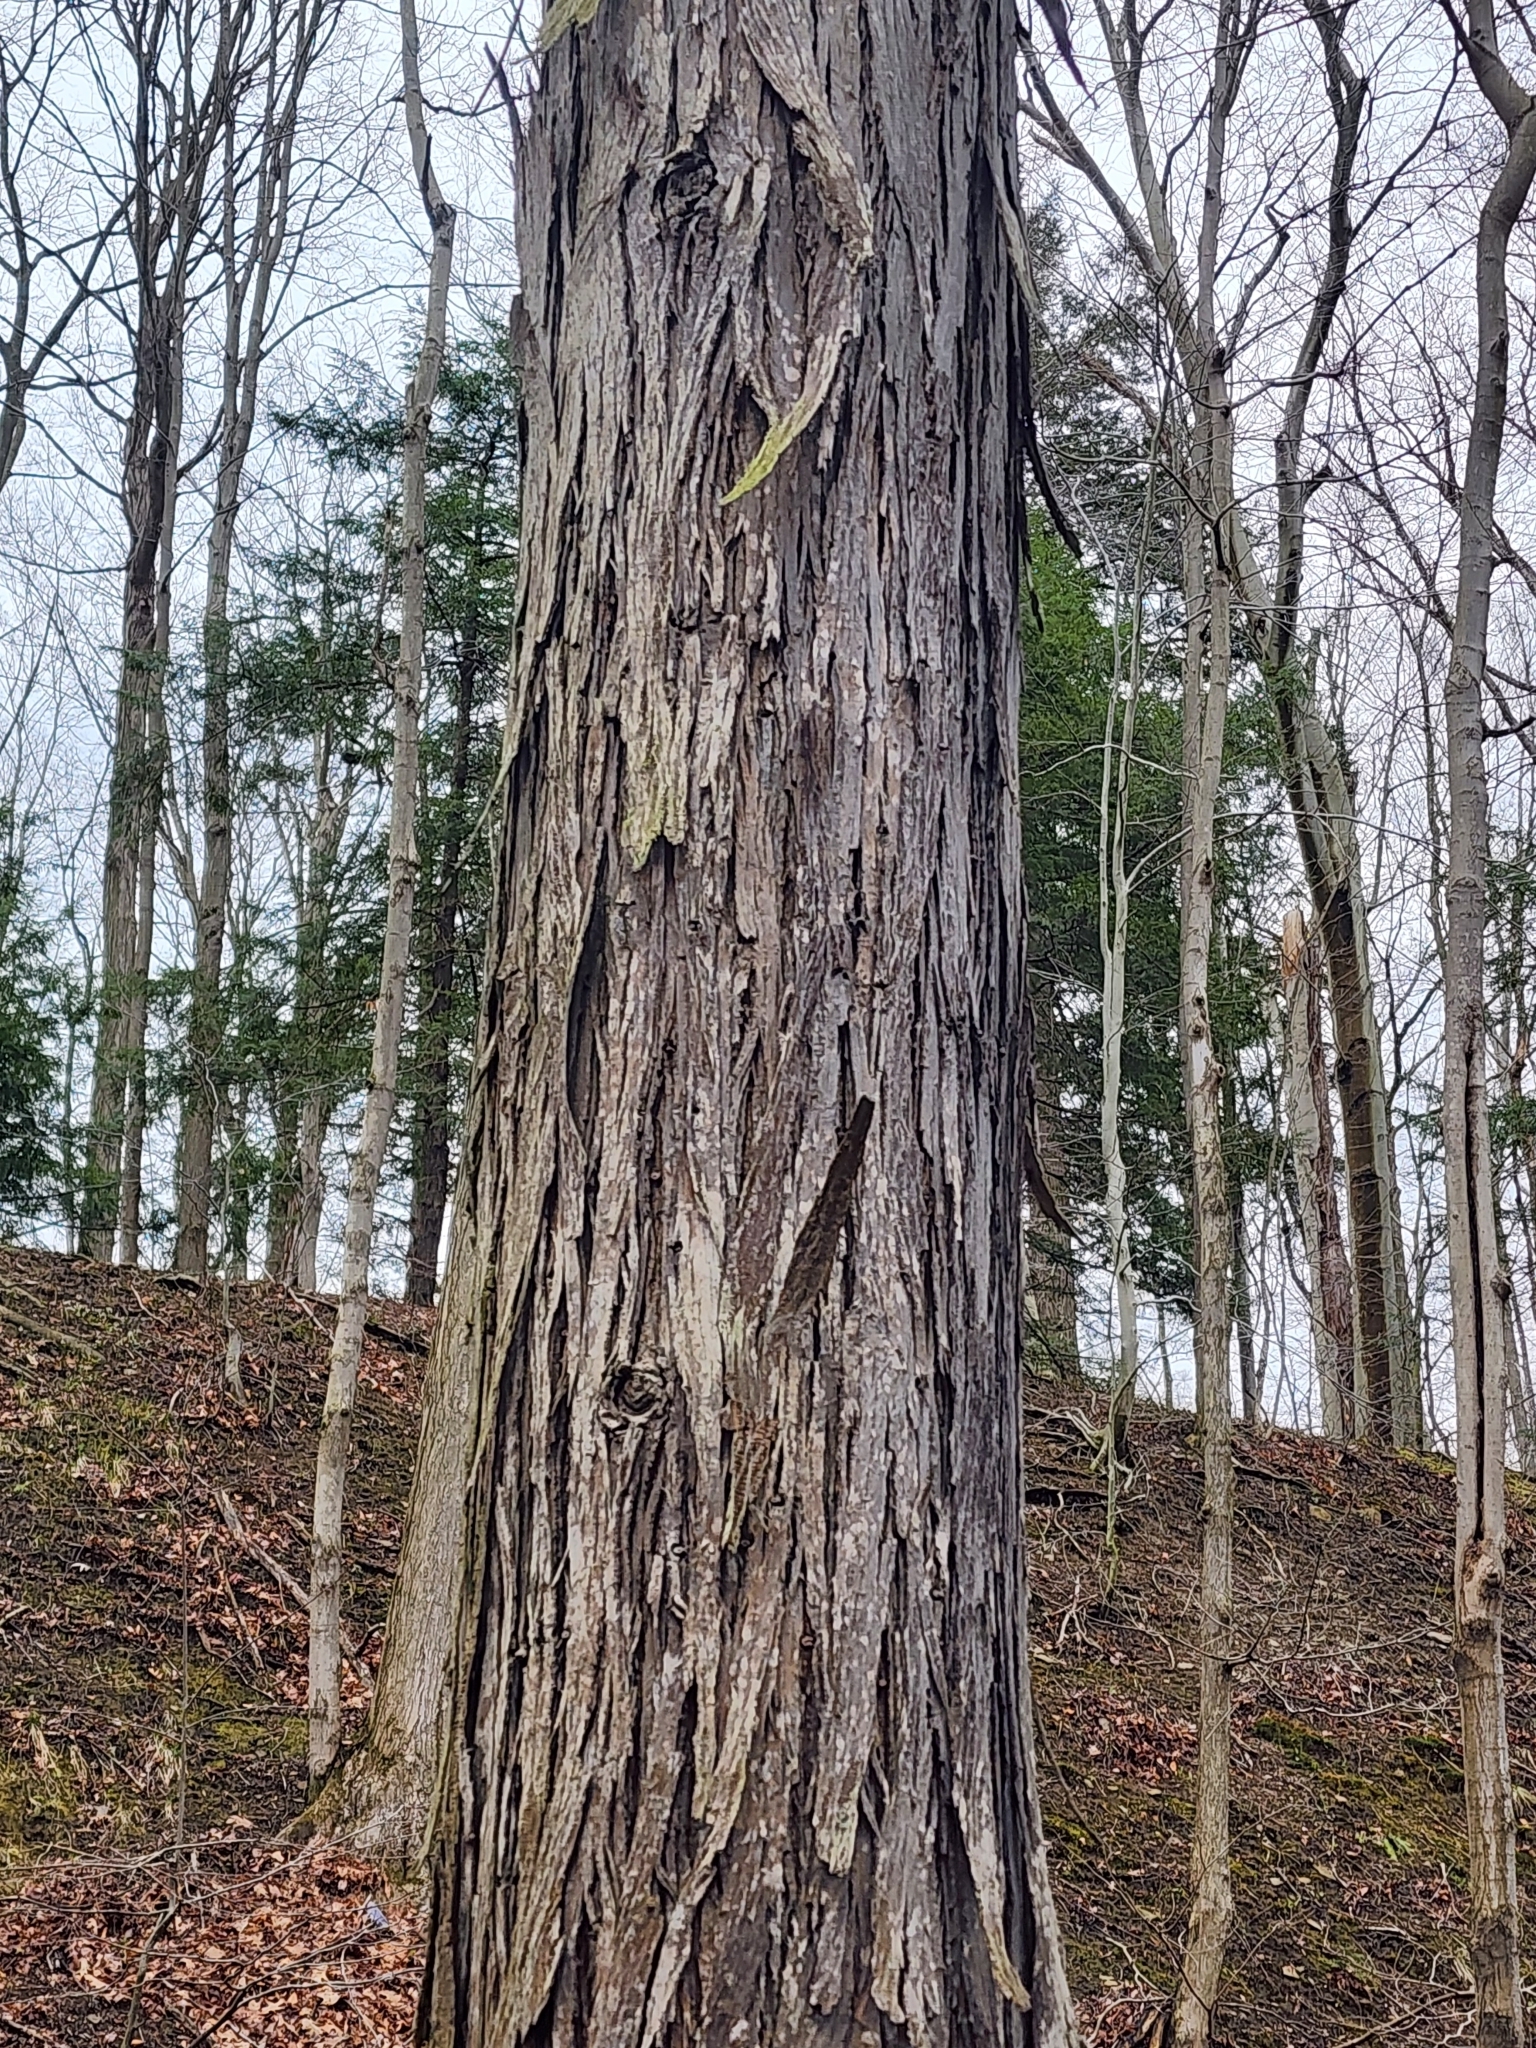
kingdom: Plantae
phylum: Tracheophyta
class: Magnoliopsida
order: Fagales
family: Juglandaceae
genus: Carya
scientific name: Carya ovata
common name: Shagbark hickory
